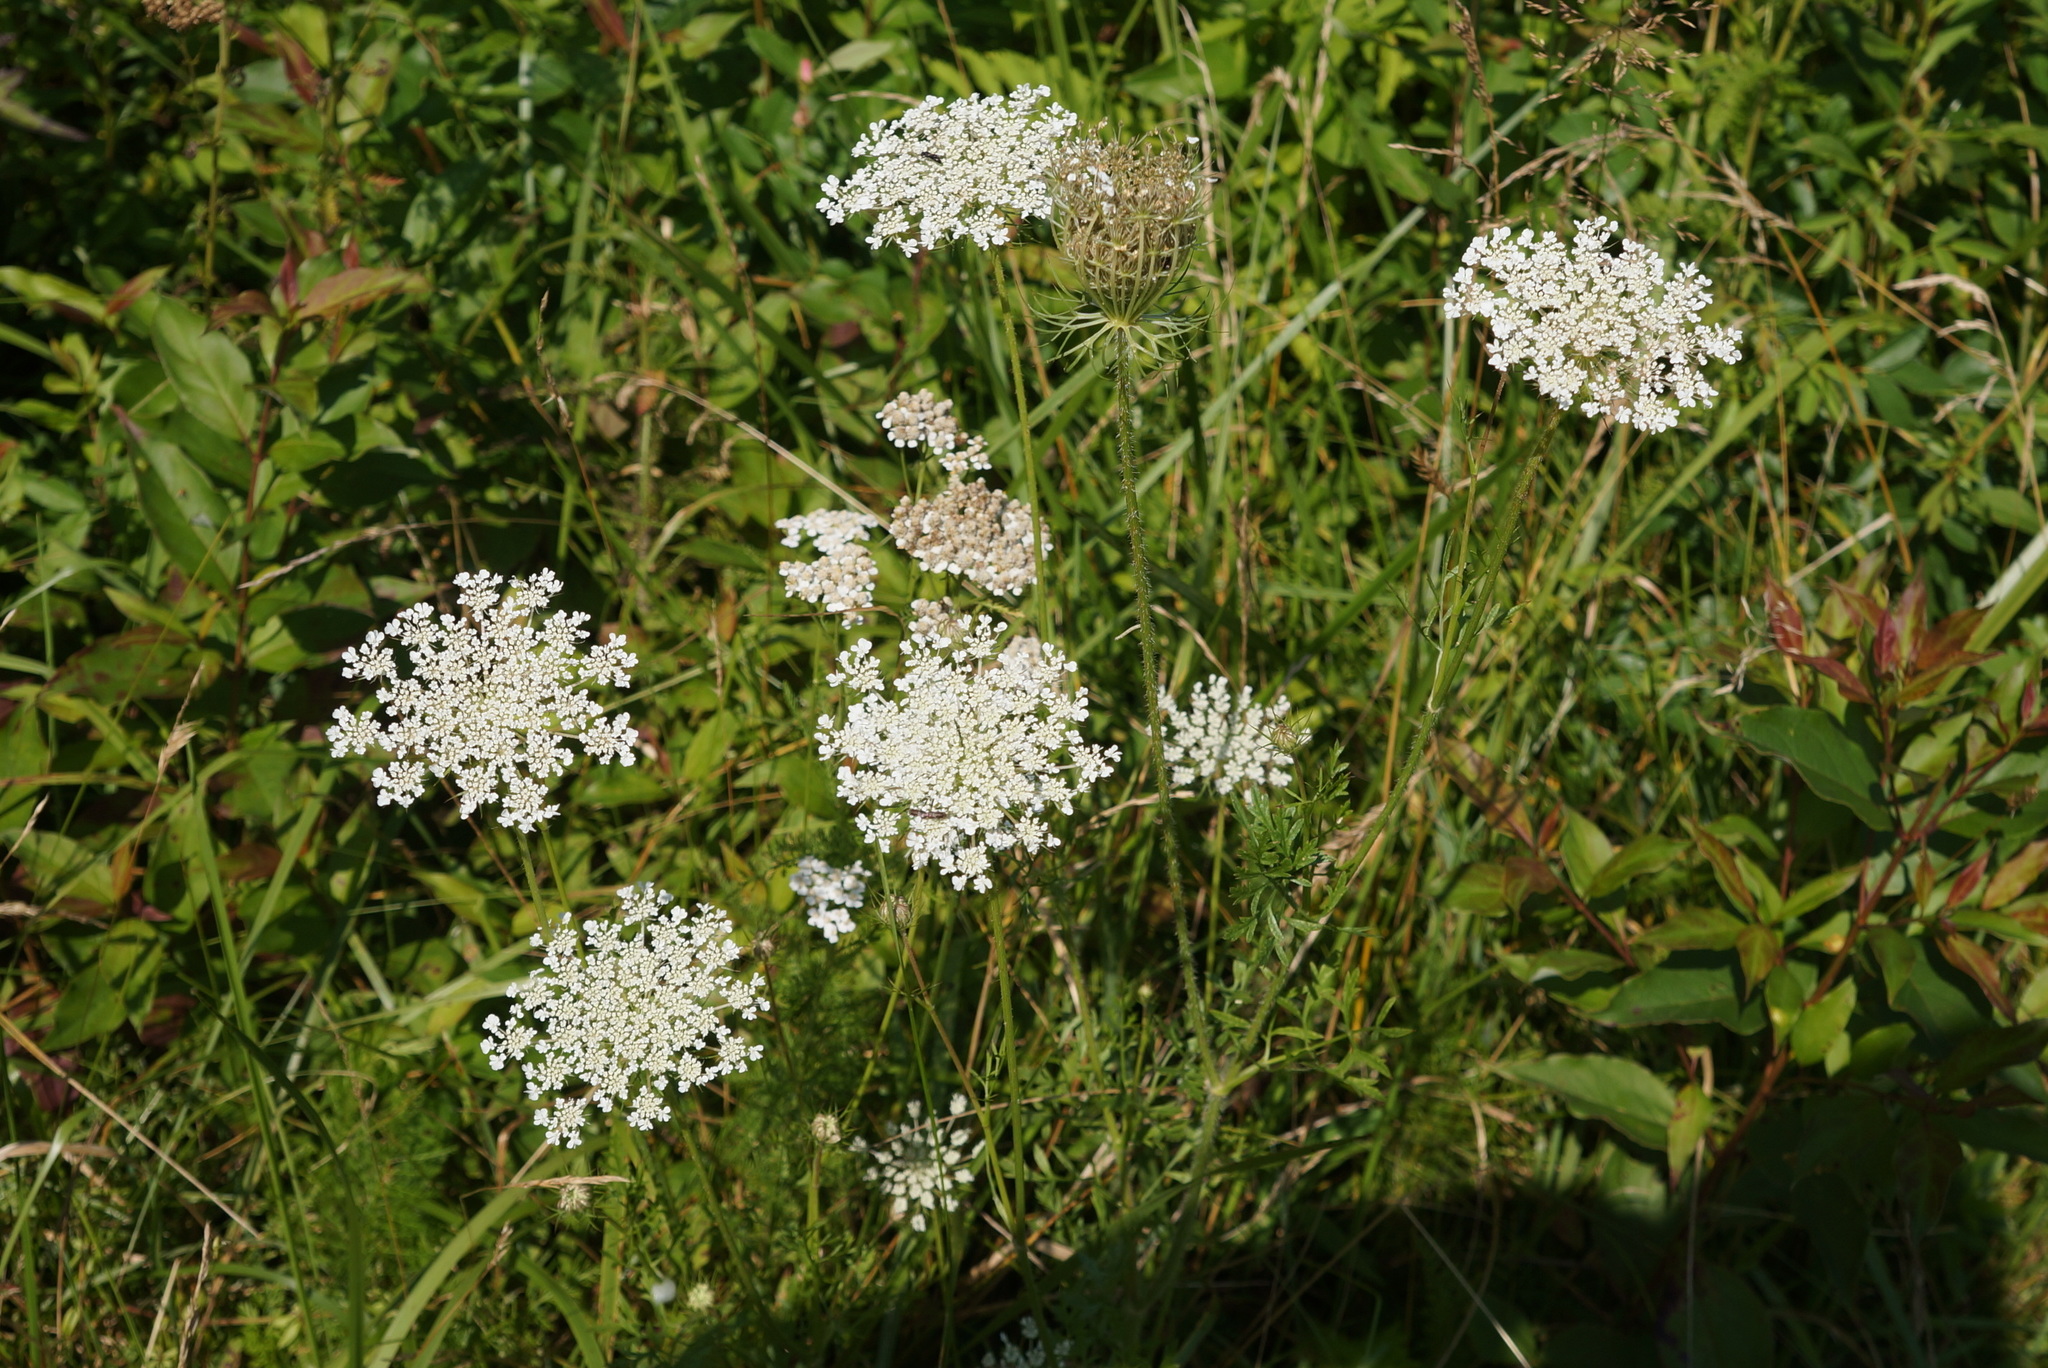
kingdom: Plantae
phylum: Tracheophyta
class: Magnoliopsida
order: Apiales
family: Apiaceae
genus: Daucus
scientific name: Daucus carota
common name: Wild carrot
